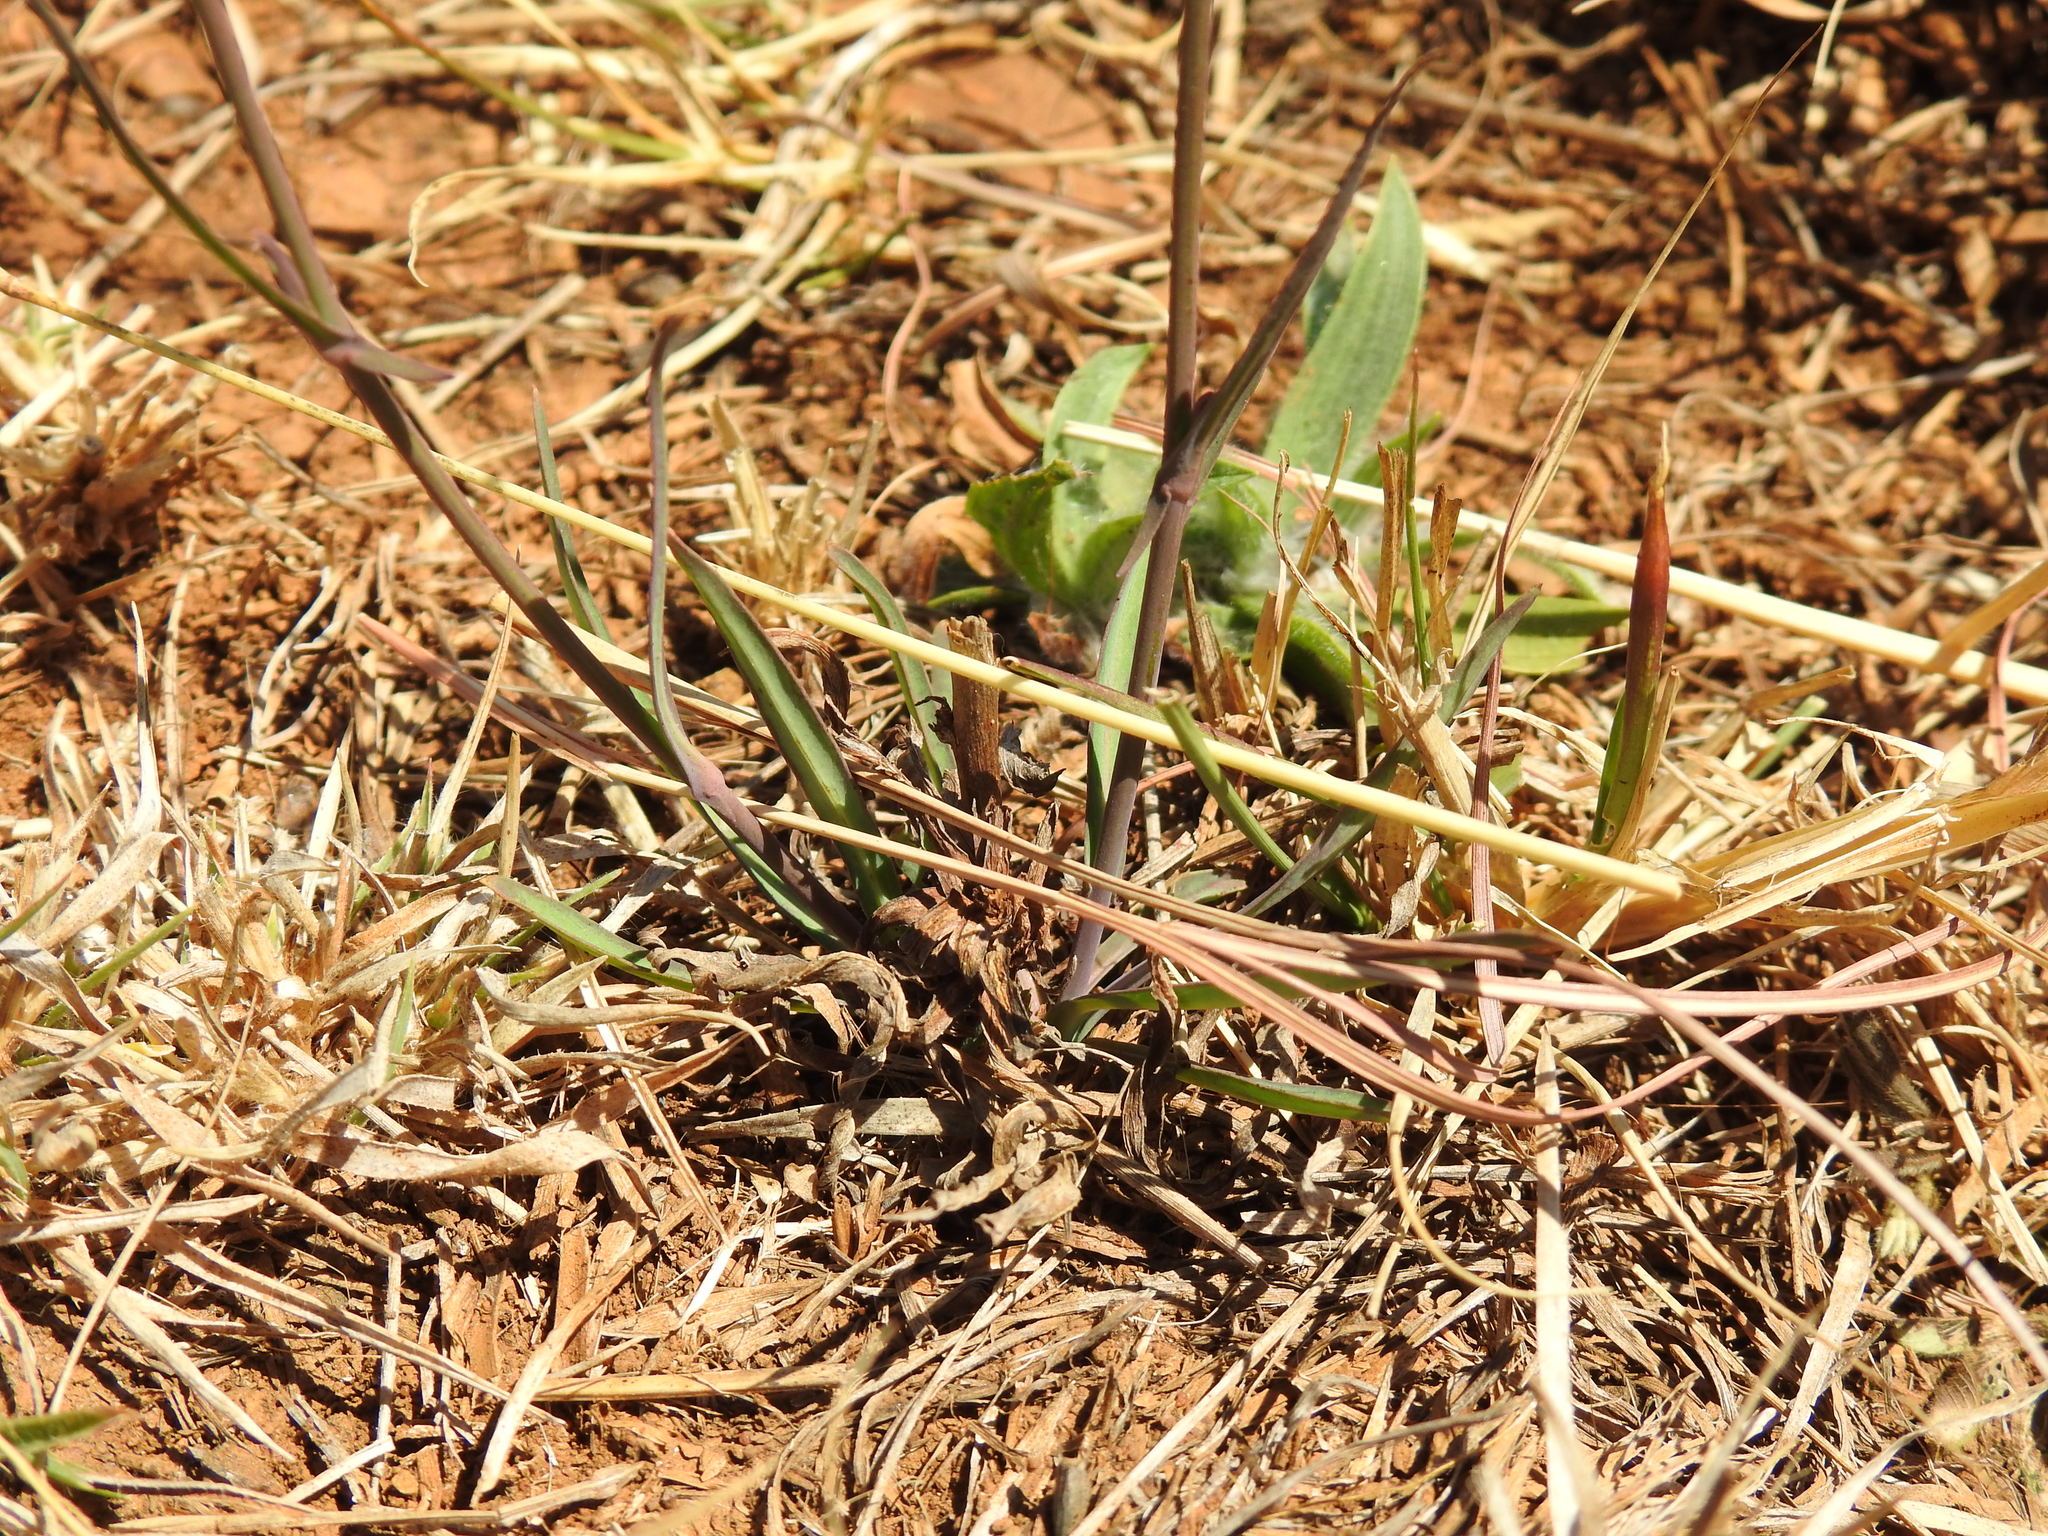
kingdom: Plantae
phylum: Tracheophyta
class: Magnoliopsida
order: Asterales
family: Asteraceae
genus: Lactuca
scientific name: Lactuca inermis
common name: Wild lettuce
